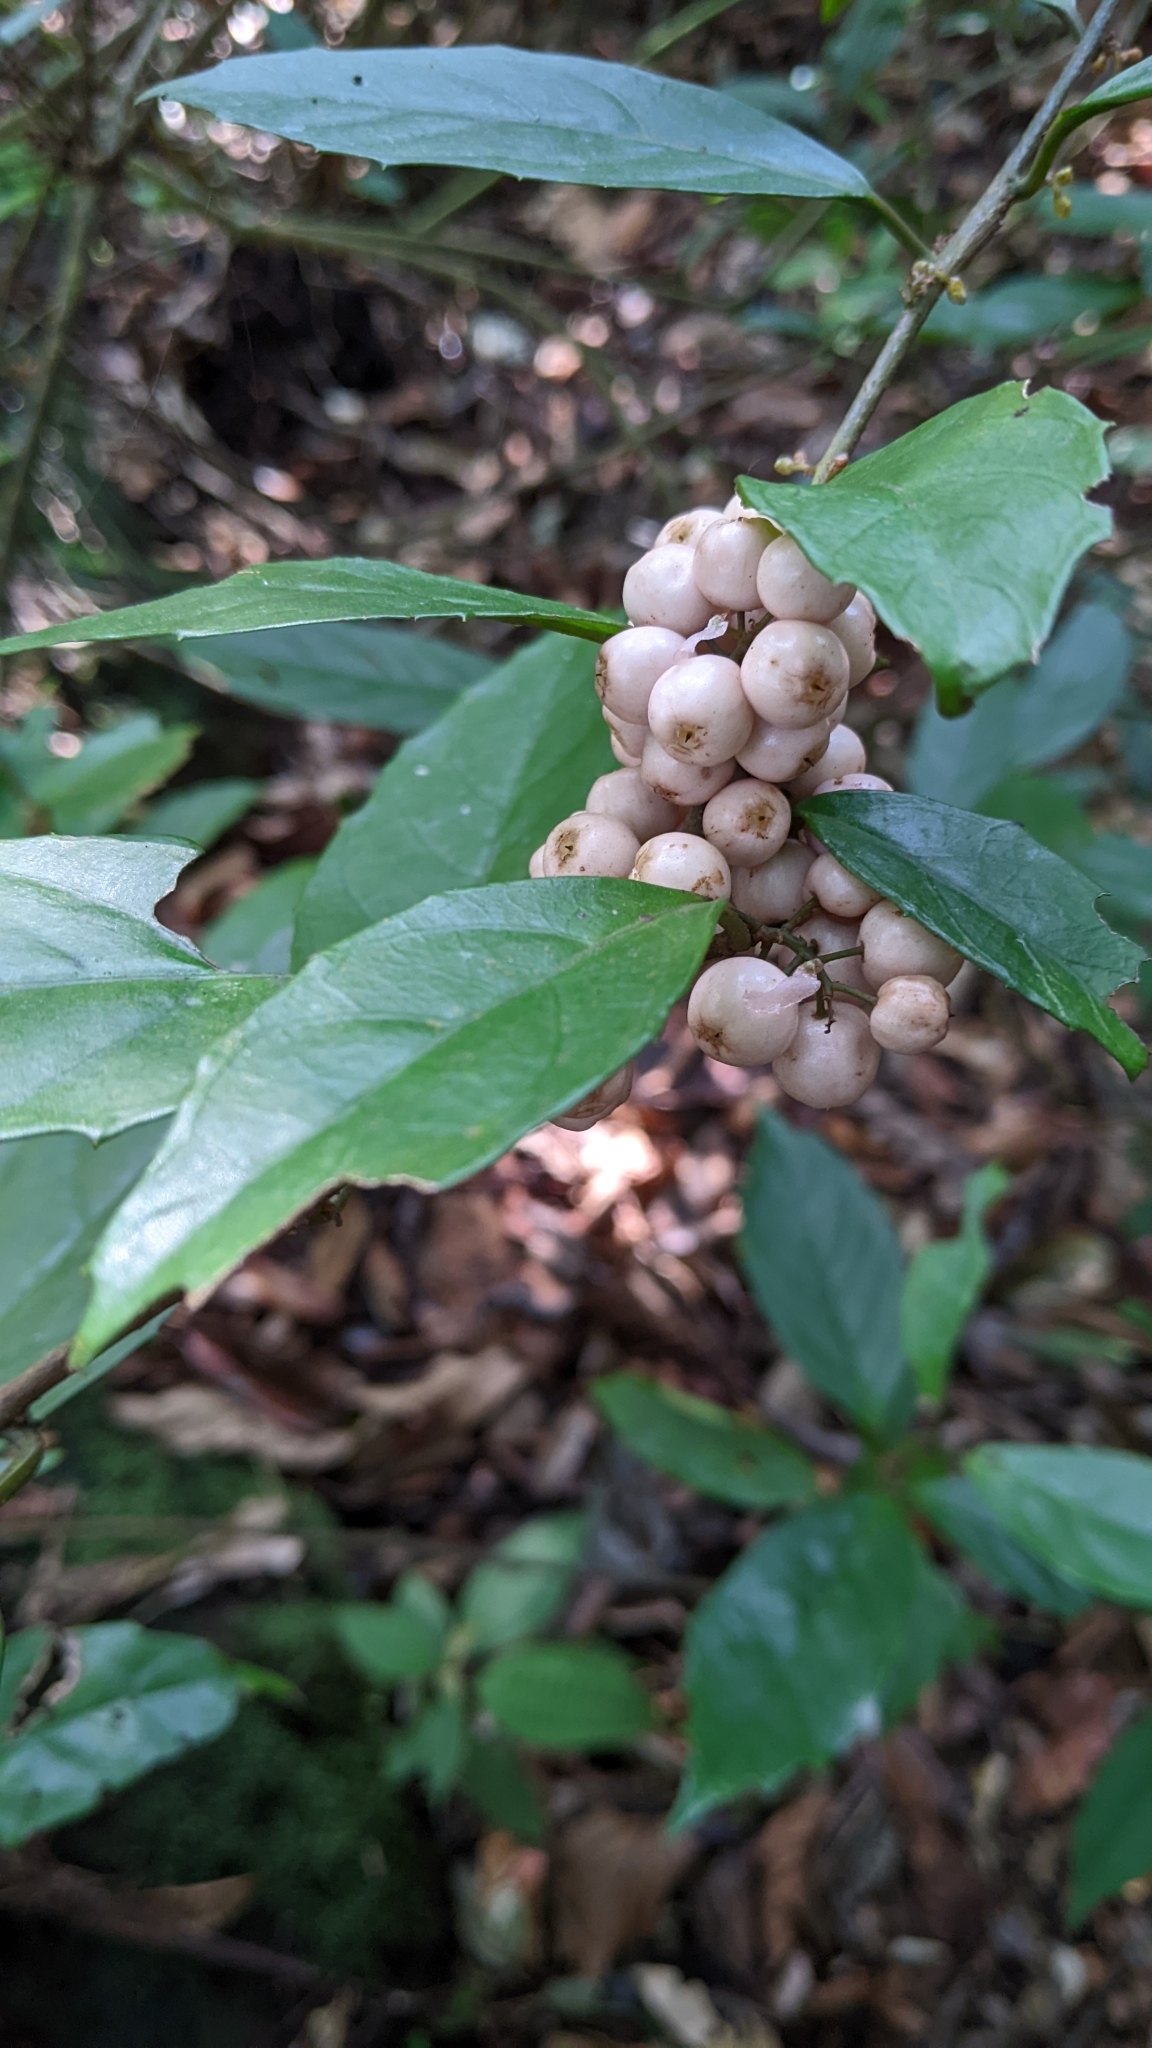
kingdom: Plantae
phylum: Tracheophyta
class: Magnoliopsida
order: Ericales
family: Primulaceae
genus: Maesa
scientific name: Maesa japonica
